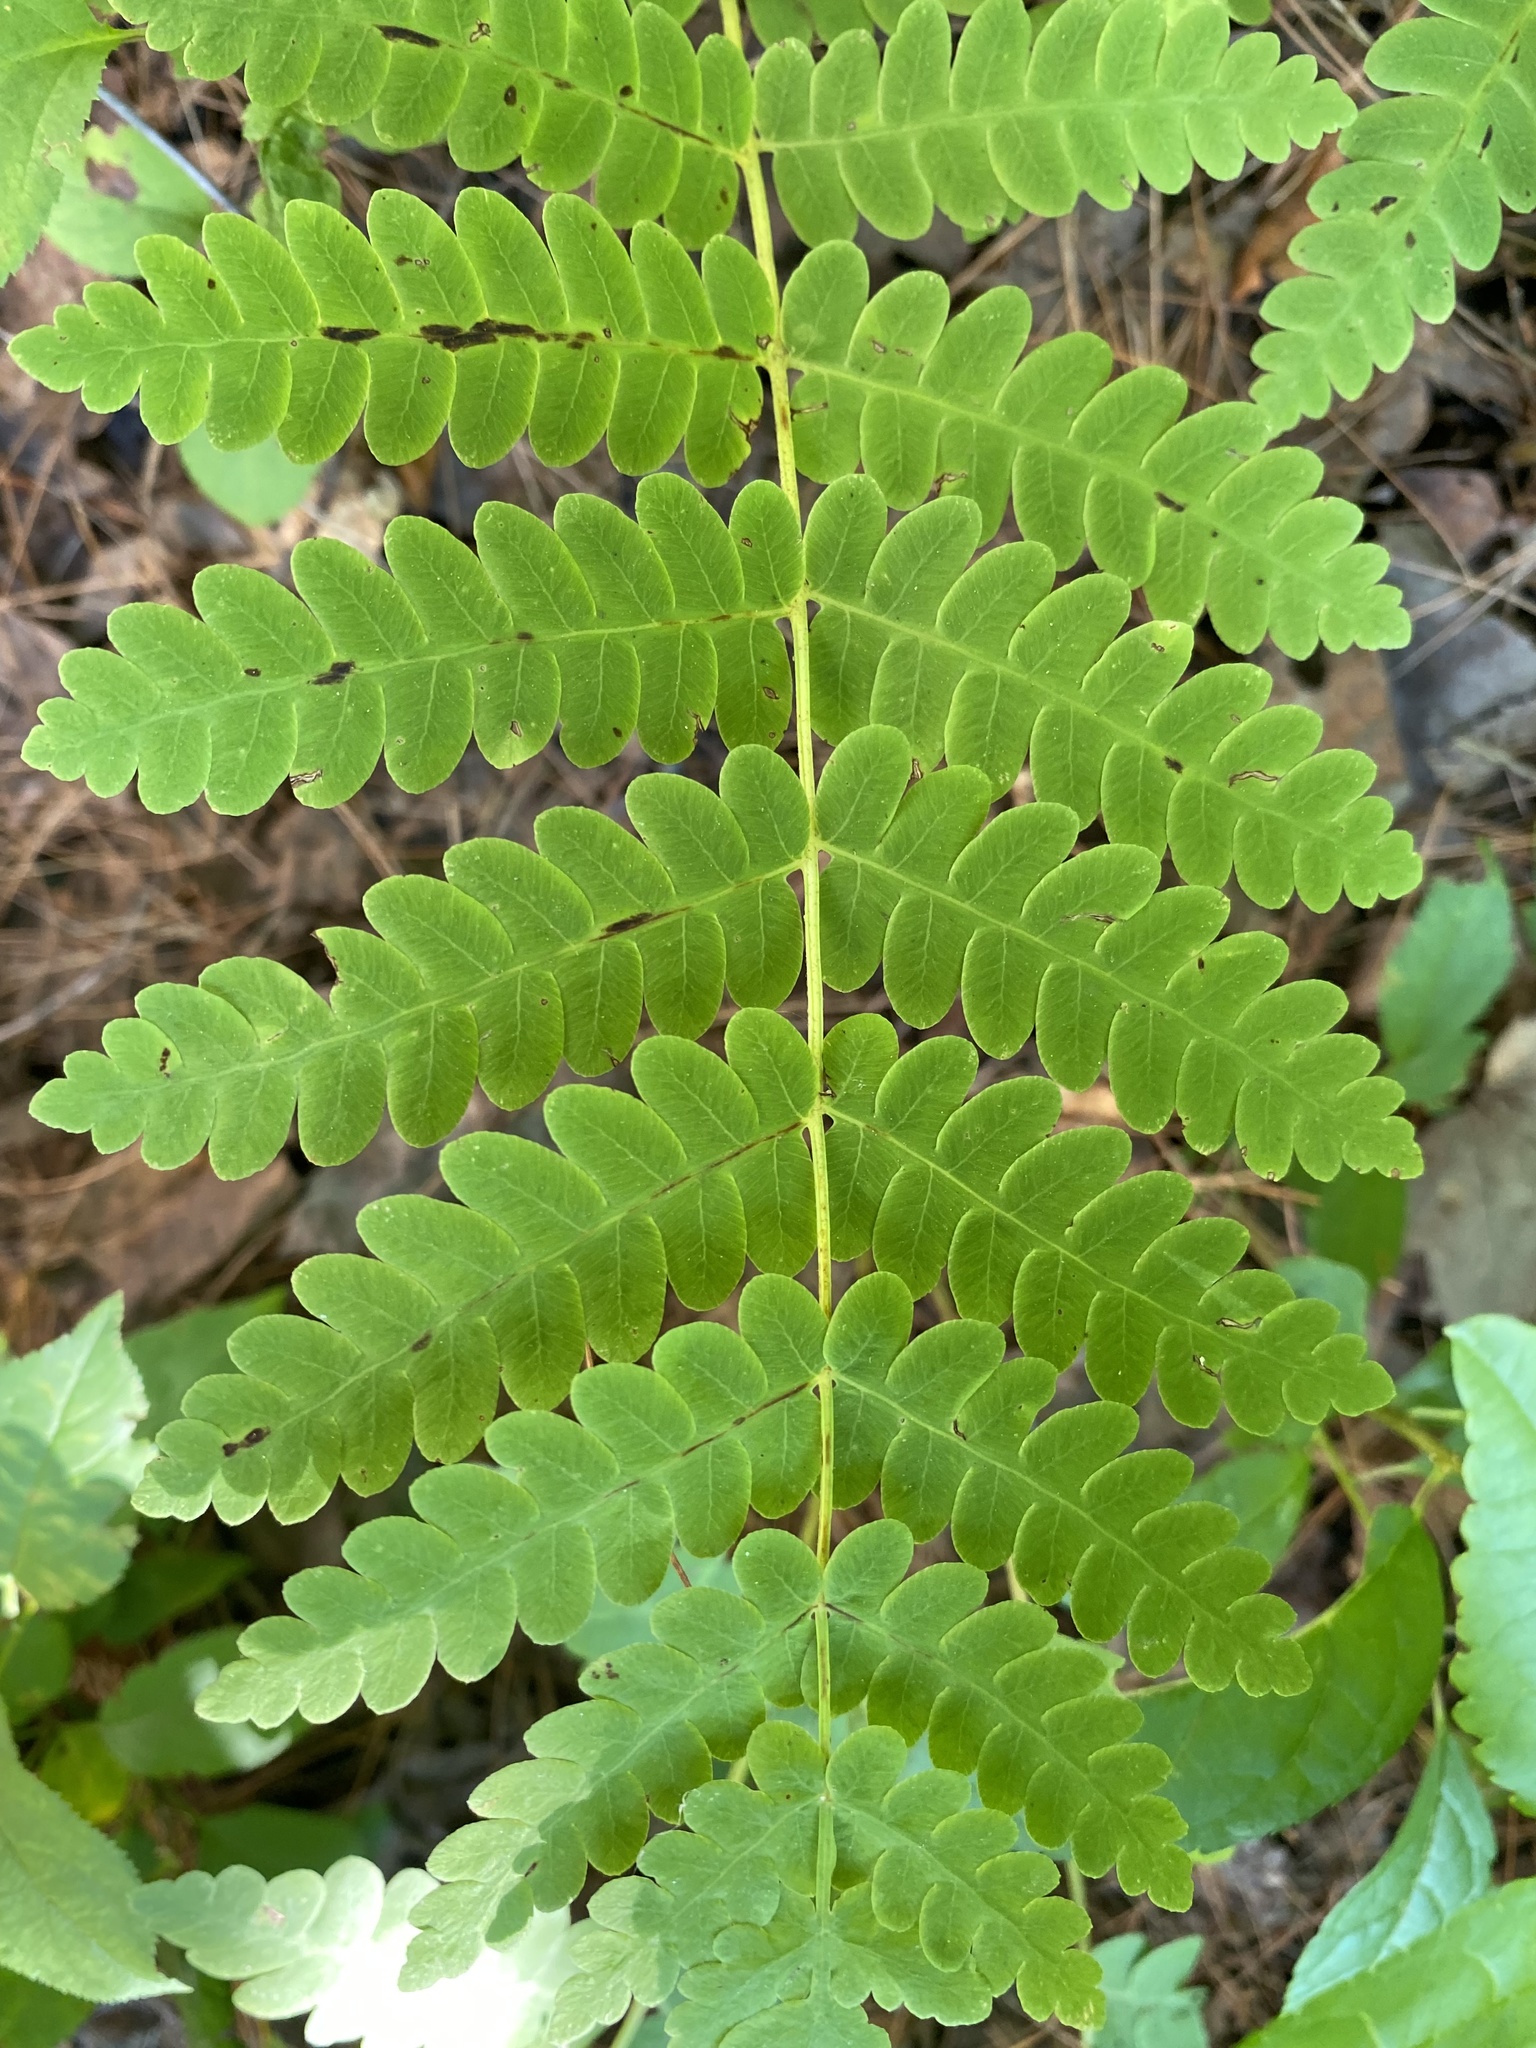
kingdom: Plantae
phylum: Tracheophyta
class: Polypodiopsida
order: Osmundales
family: Osmundaceae
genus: Claytosmunda
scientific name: Claytosmunda claytoniana
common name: Clayton's fern
